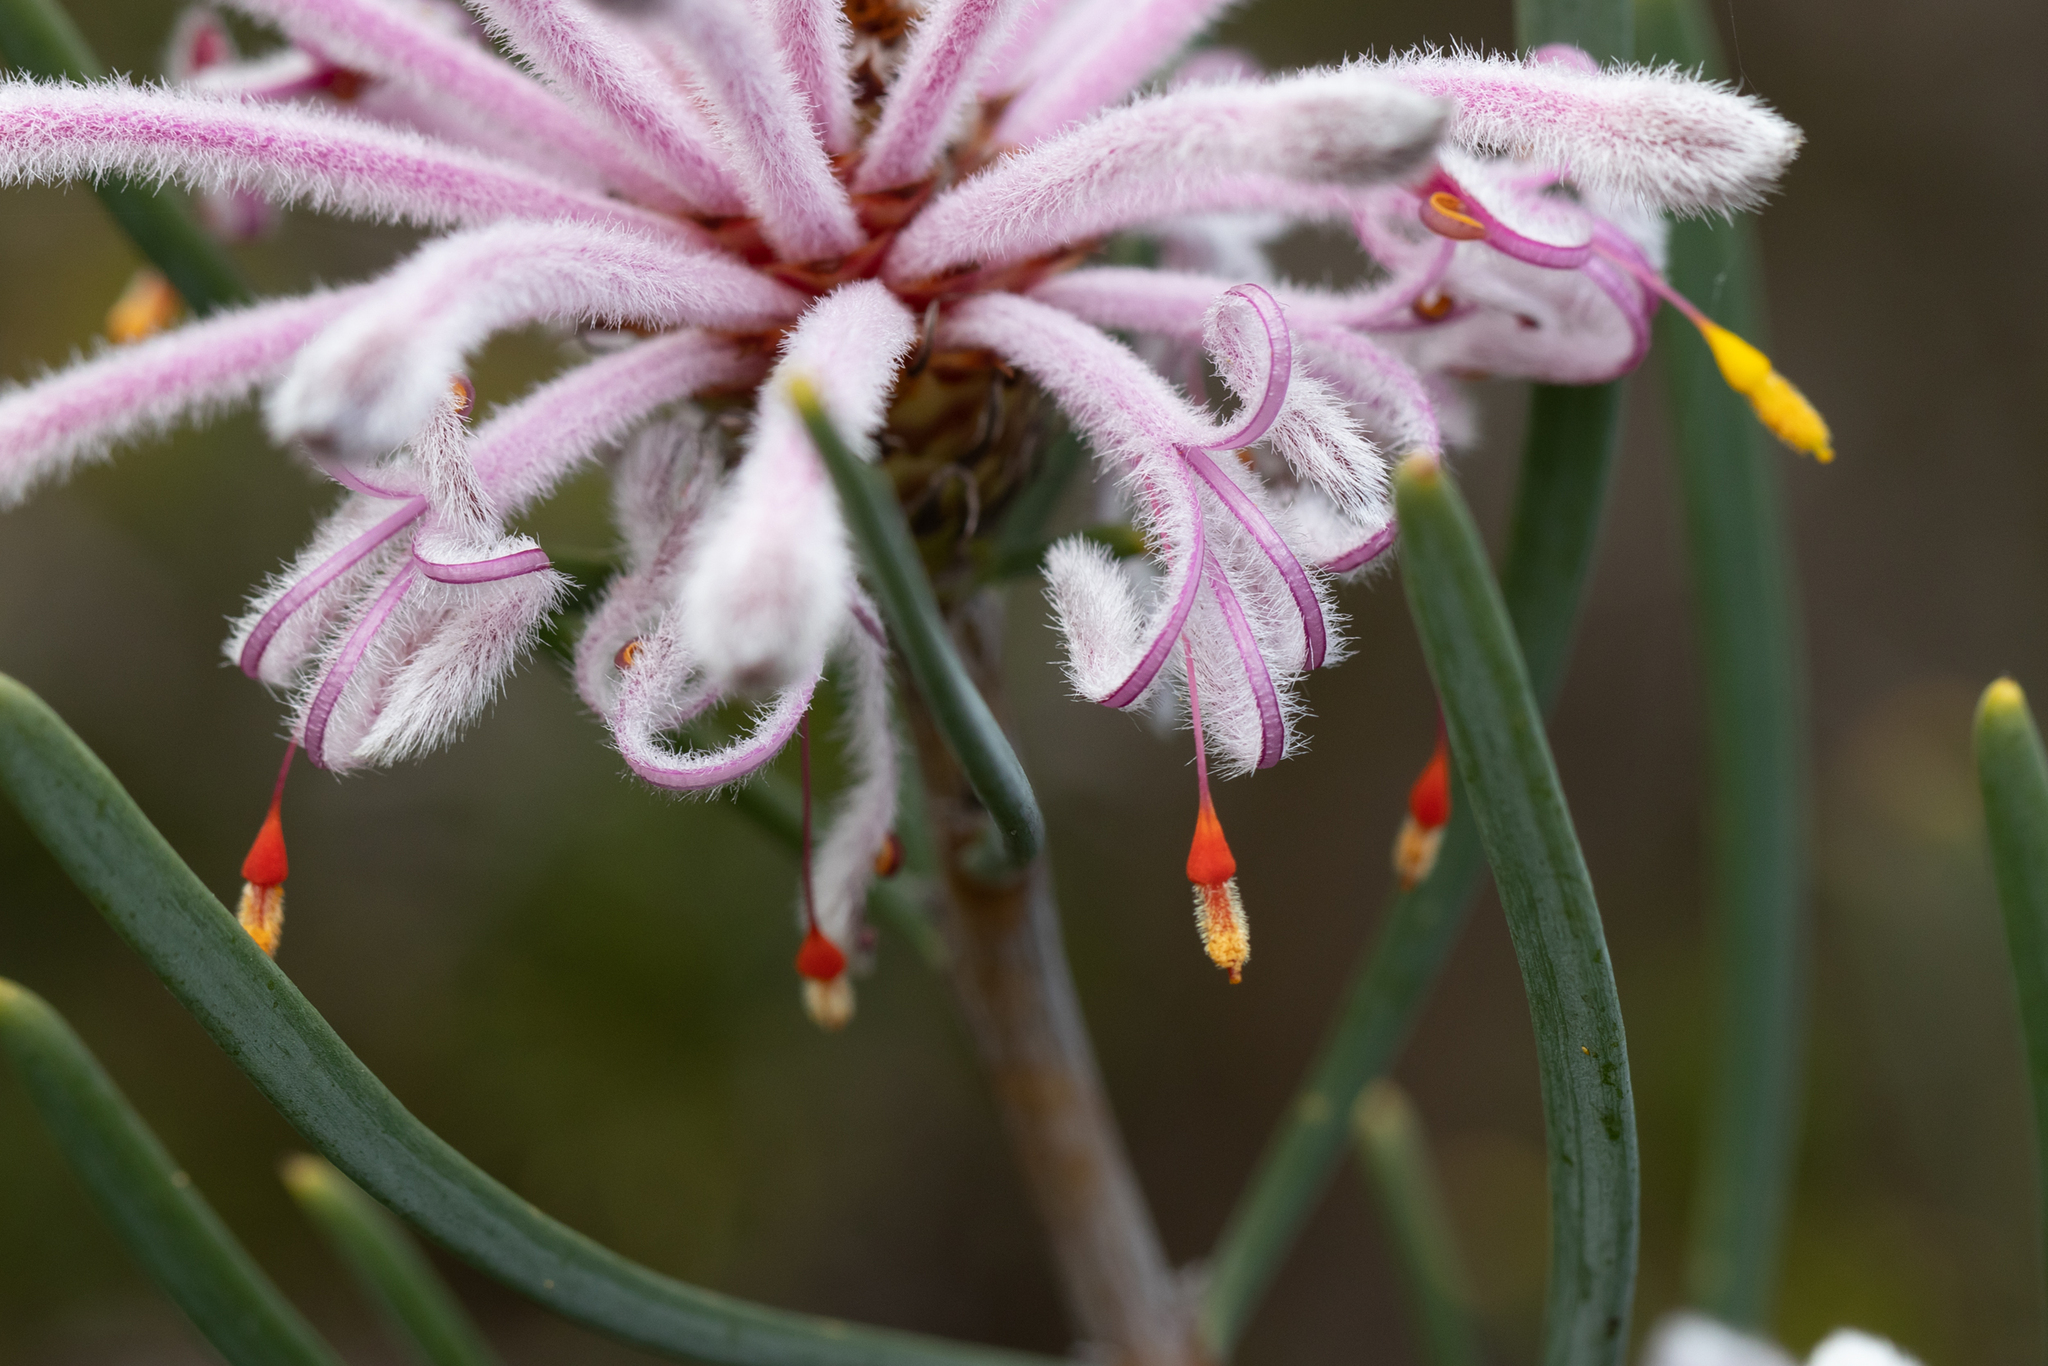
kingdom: Plantae
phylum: Tracheophyta
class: Magnoliopsida
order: Proteales
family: Proteaceae
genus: Petrophile
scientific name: Petrophile linearis
